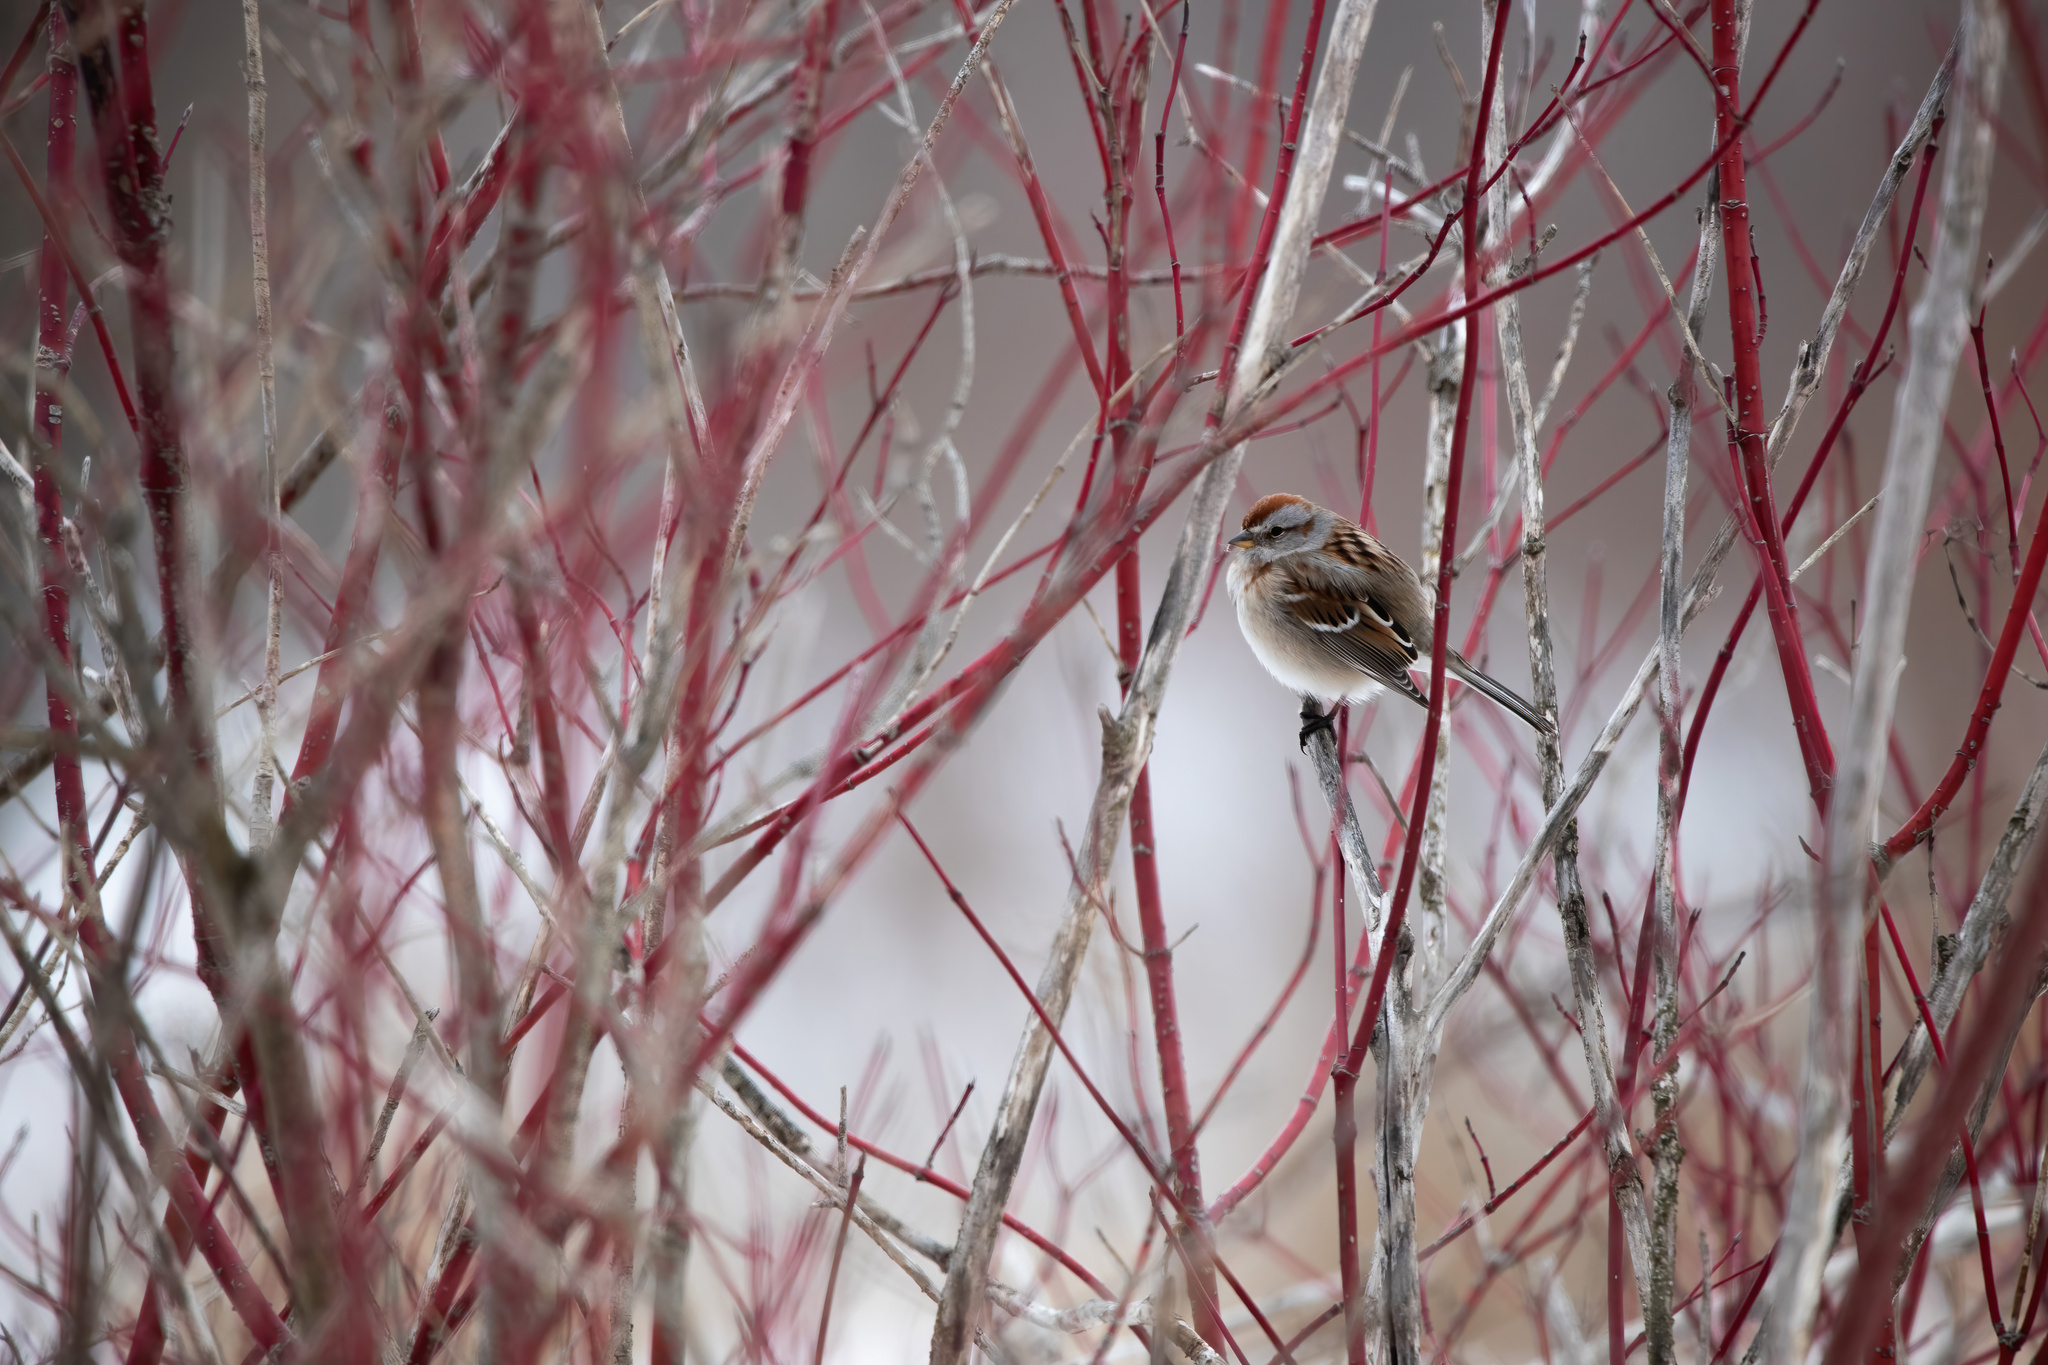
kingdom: Animalia
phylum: Chordata
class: Aves
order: Passeriformes
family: Passerellidae
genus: Spizelloides
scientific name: Spizelloides arborea
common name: American tree sparrow
